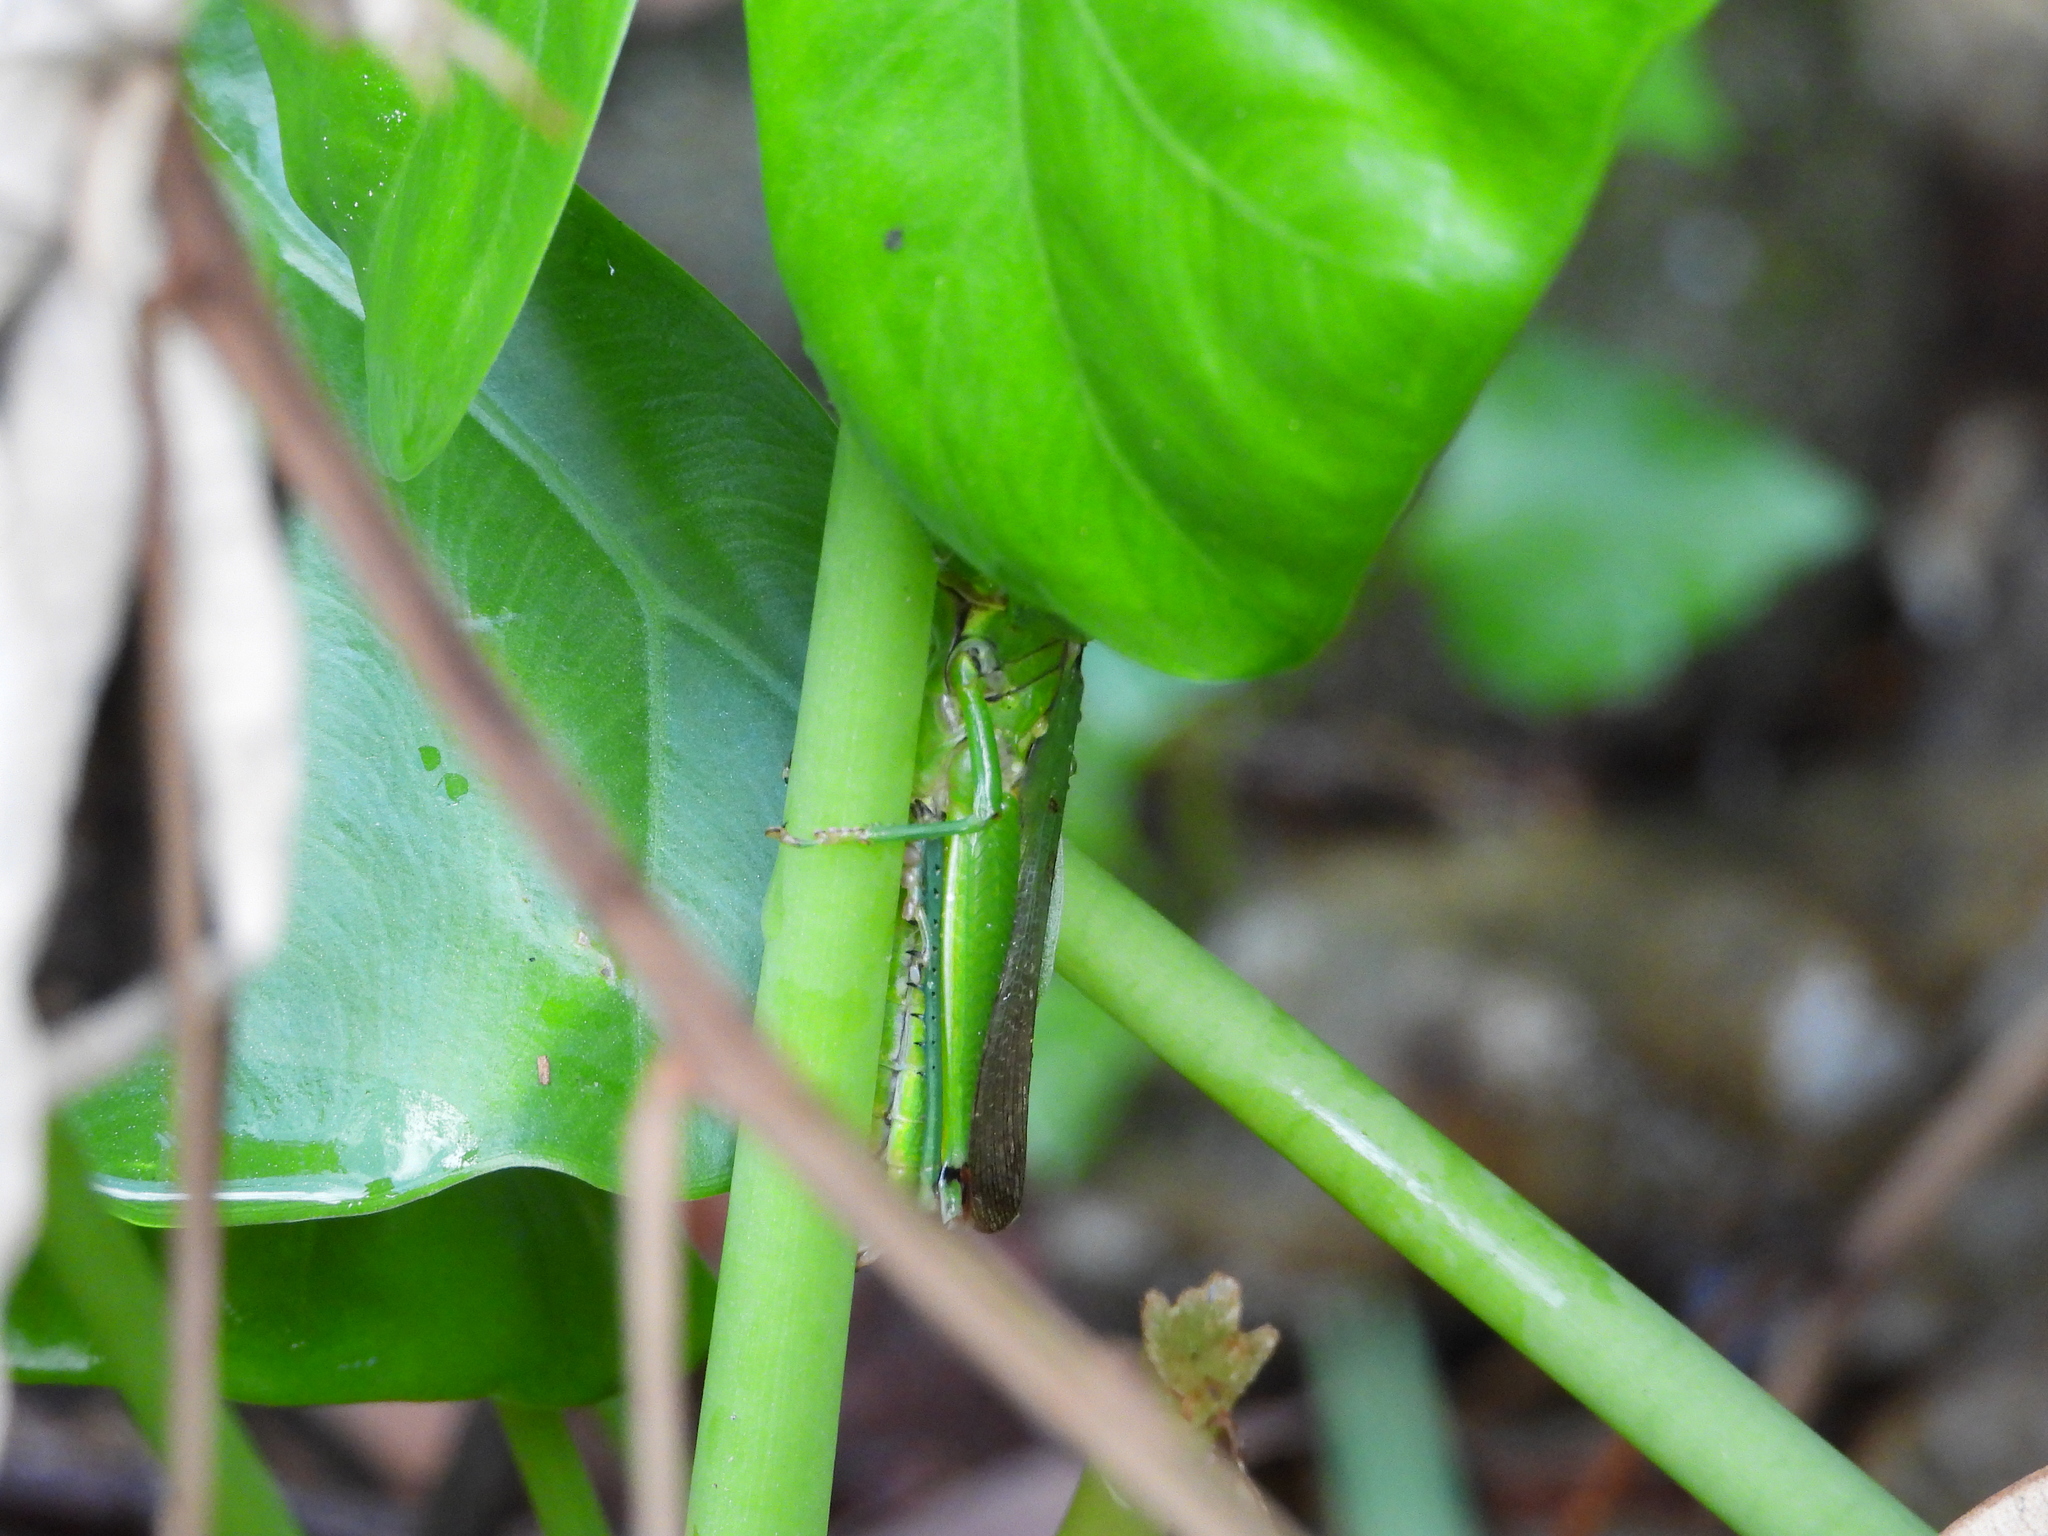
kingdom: Animalia
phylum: Arthropoda
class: Insecta
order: Orthoptera
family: Acrididae
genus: Hieroglyphus
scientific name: Hieroglyphus tonkinensis
